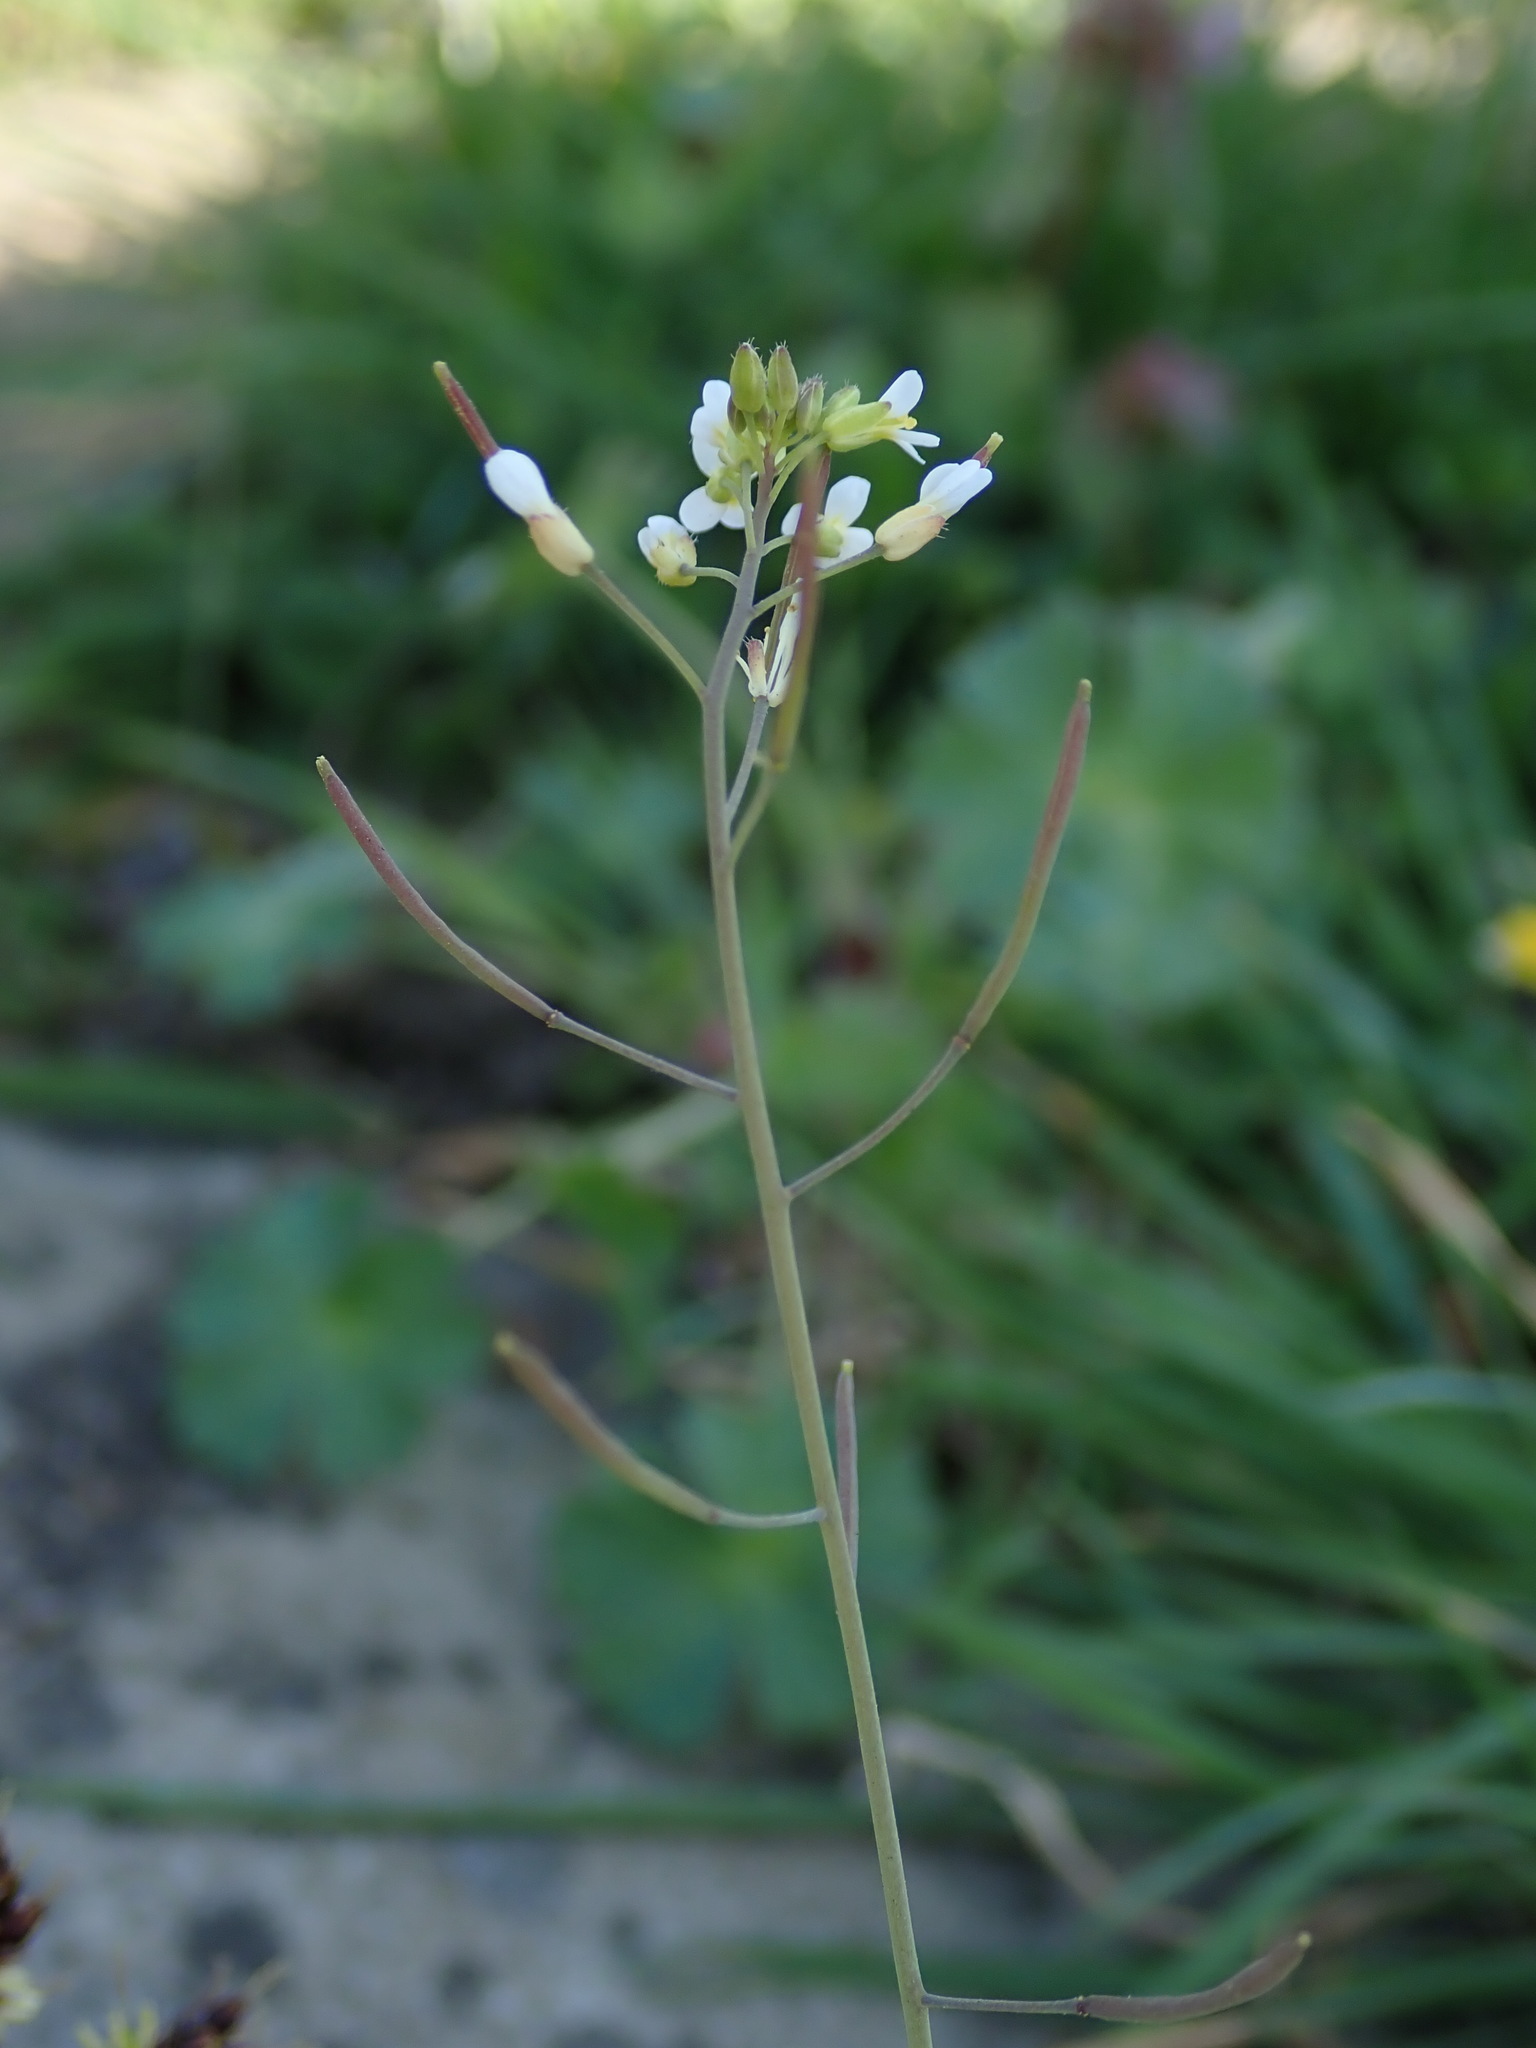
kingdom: Plantae
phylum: Tracheophyta
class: Magnoliopsida
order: Brassicales
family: Brassicaceae
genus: Arabidopsis
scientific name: Arabidopsis thaliana
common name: Thale cress
